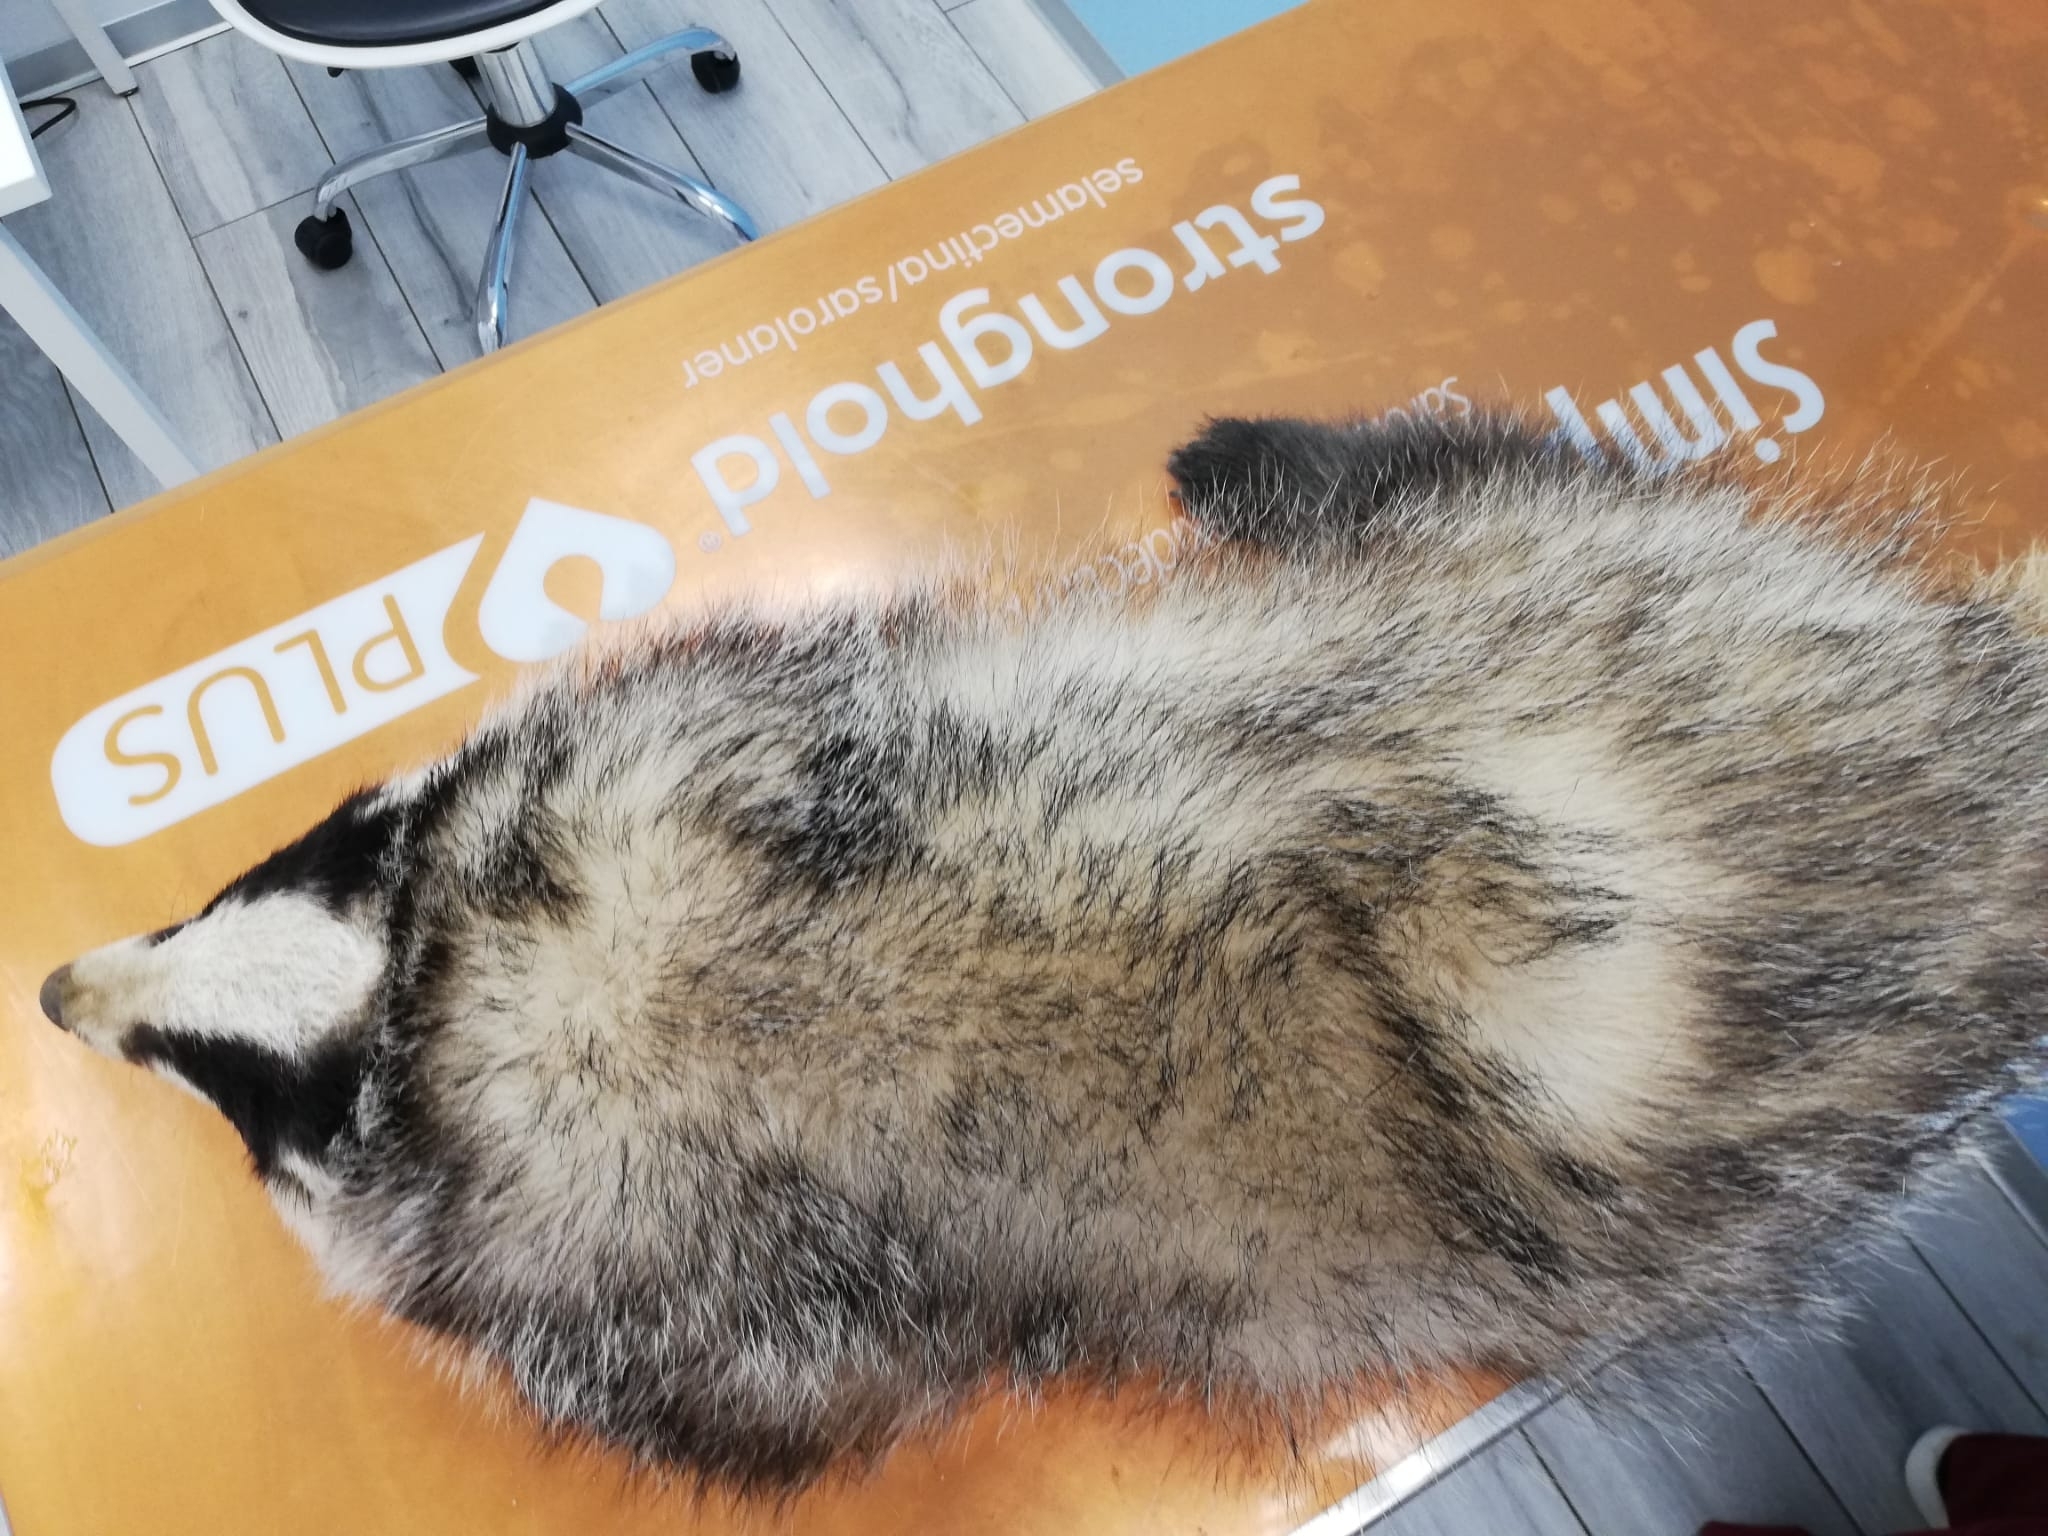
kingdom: Animalia
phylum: Chordata
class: Mammalia
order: Carnivora
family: Mustelidae
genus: Meles
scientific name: Meles meles
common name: Eurasian badger
